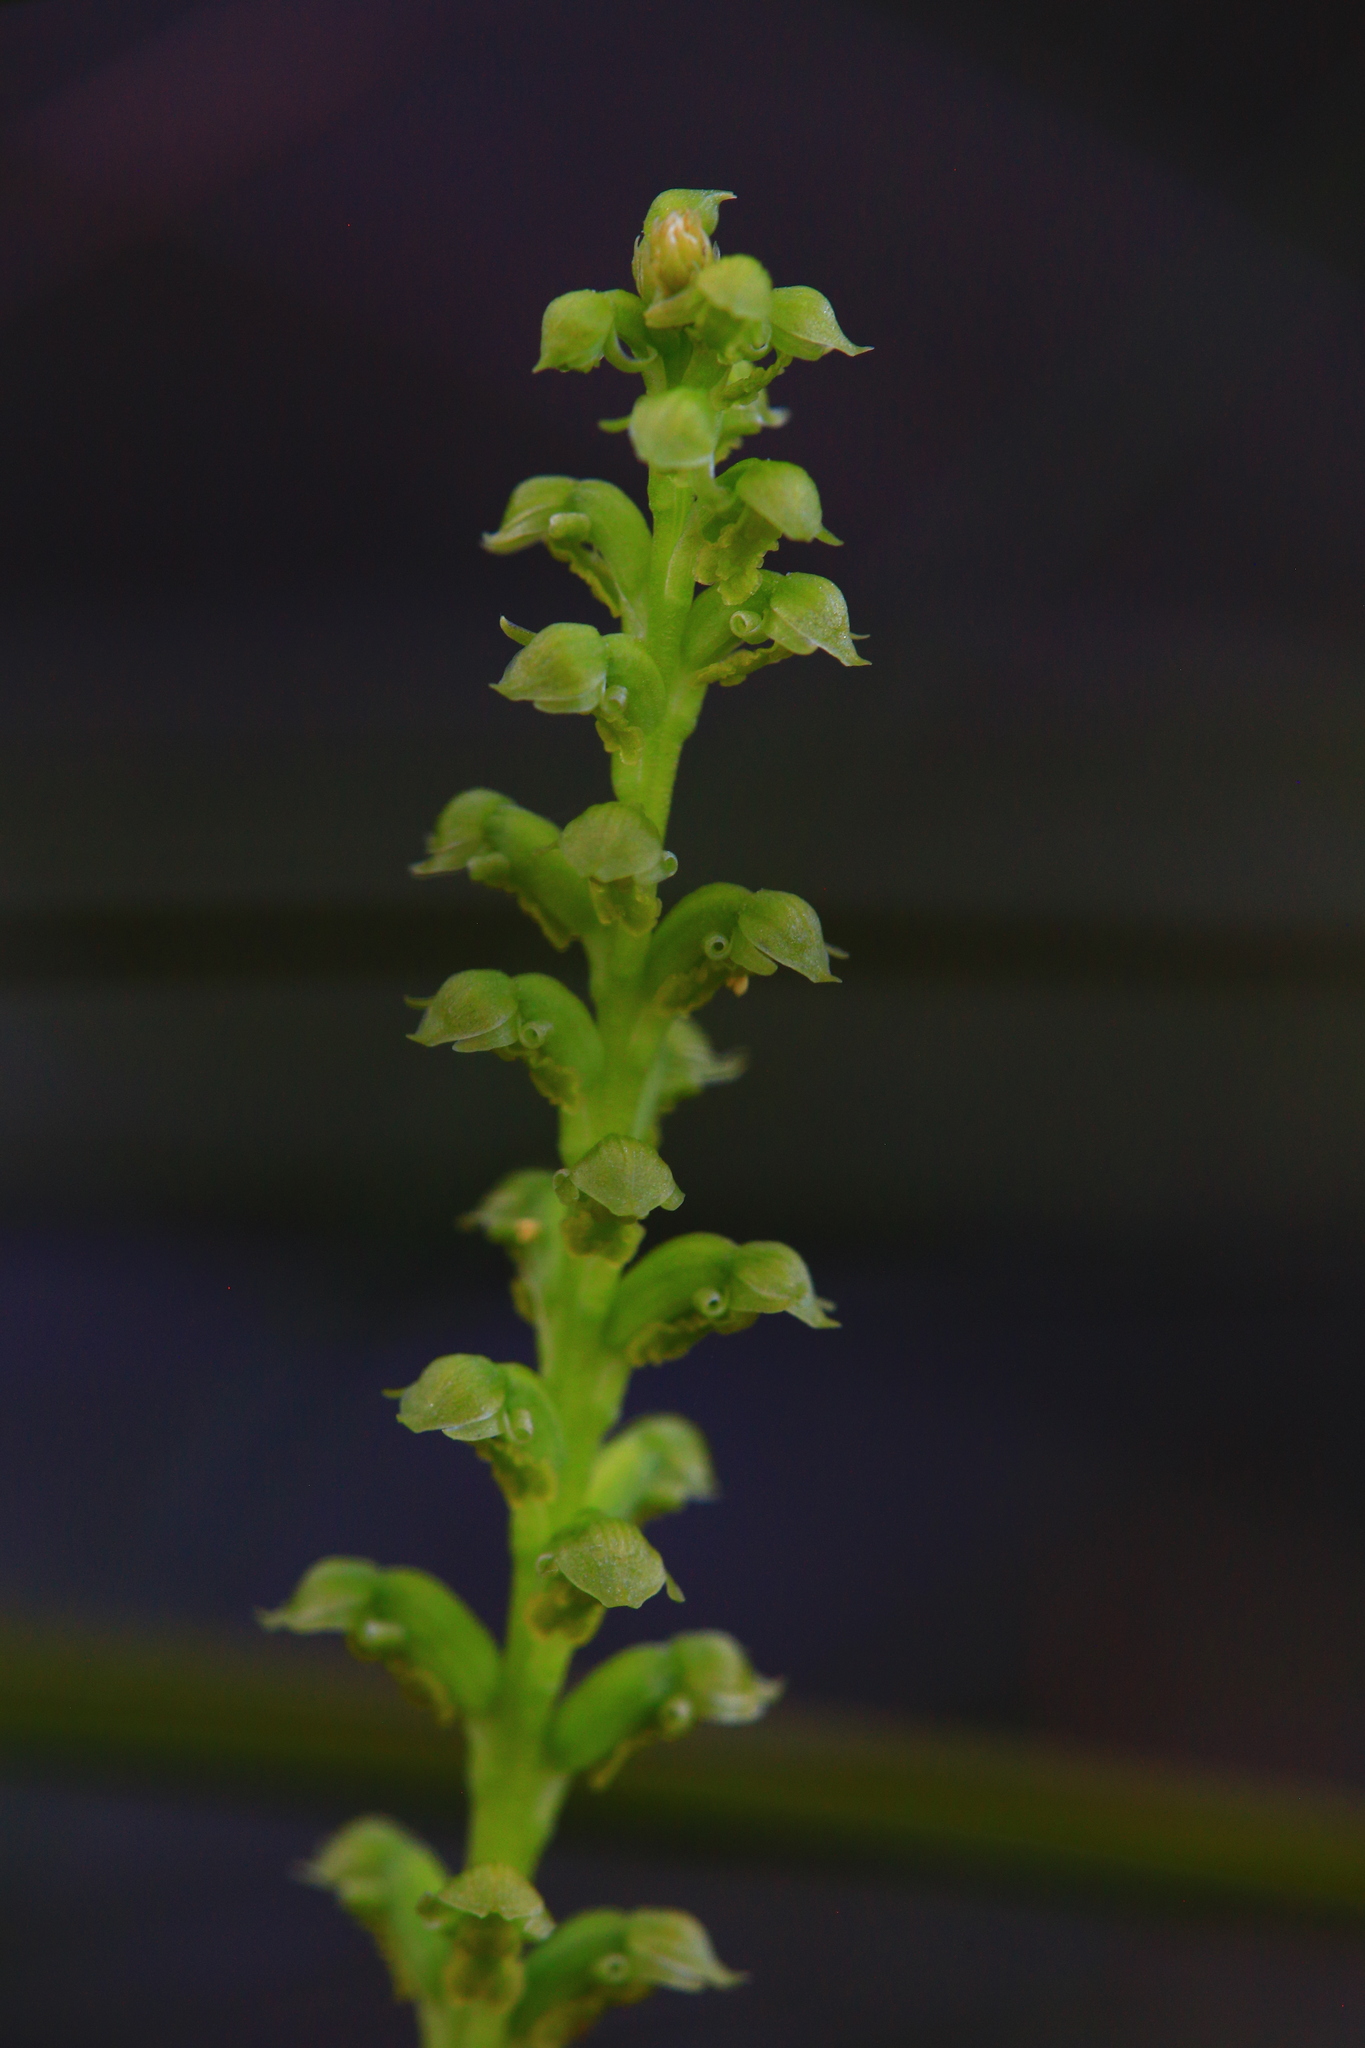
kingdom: Plantae
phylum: Tracheophyta
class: Liliopsida
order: Asparagales
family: Orchidaceae
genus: Microtis
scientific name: Microtis media
